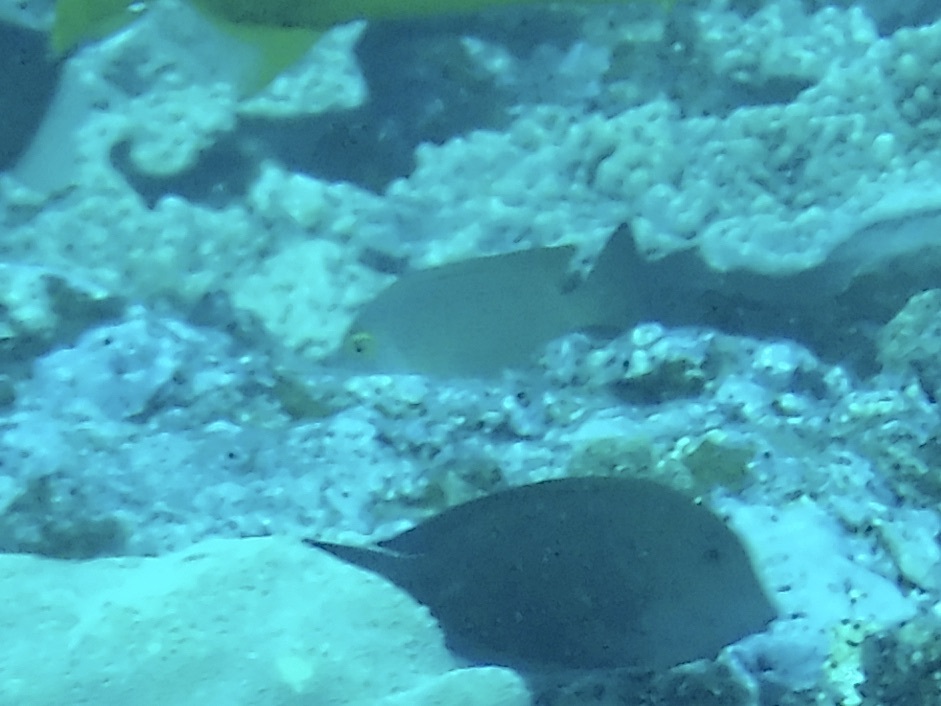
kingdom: Animalia
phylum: Chordata
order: Perciformes
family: Acanthuridae
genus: Ctenochaetus
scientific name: Ctenochaetus truncatus
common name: Indian gold-ring bristle-tooth
